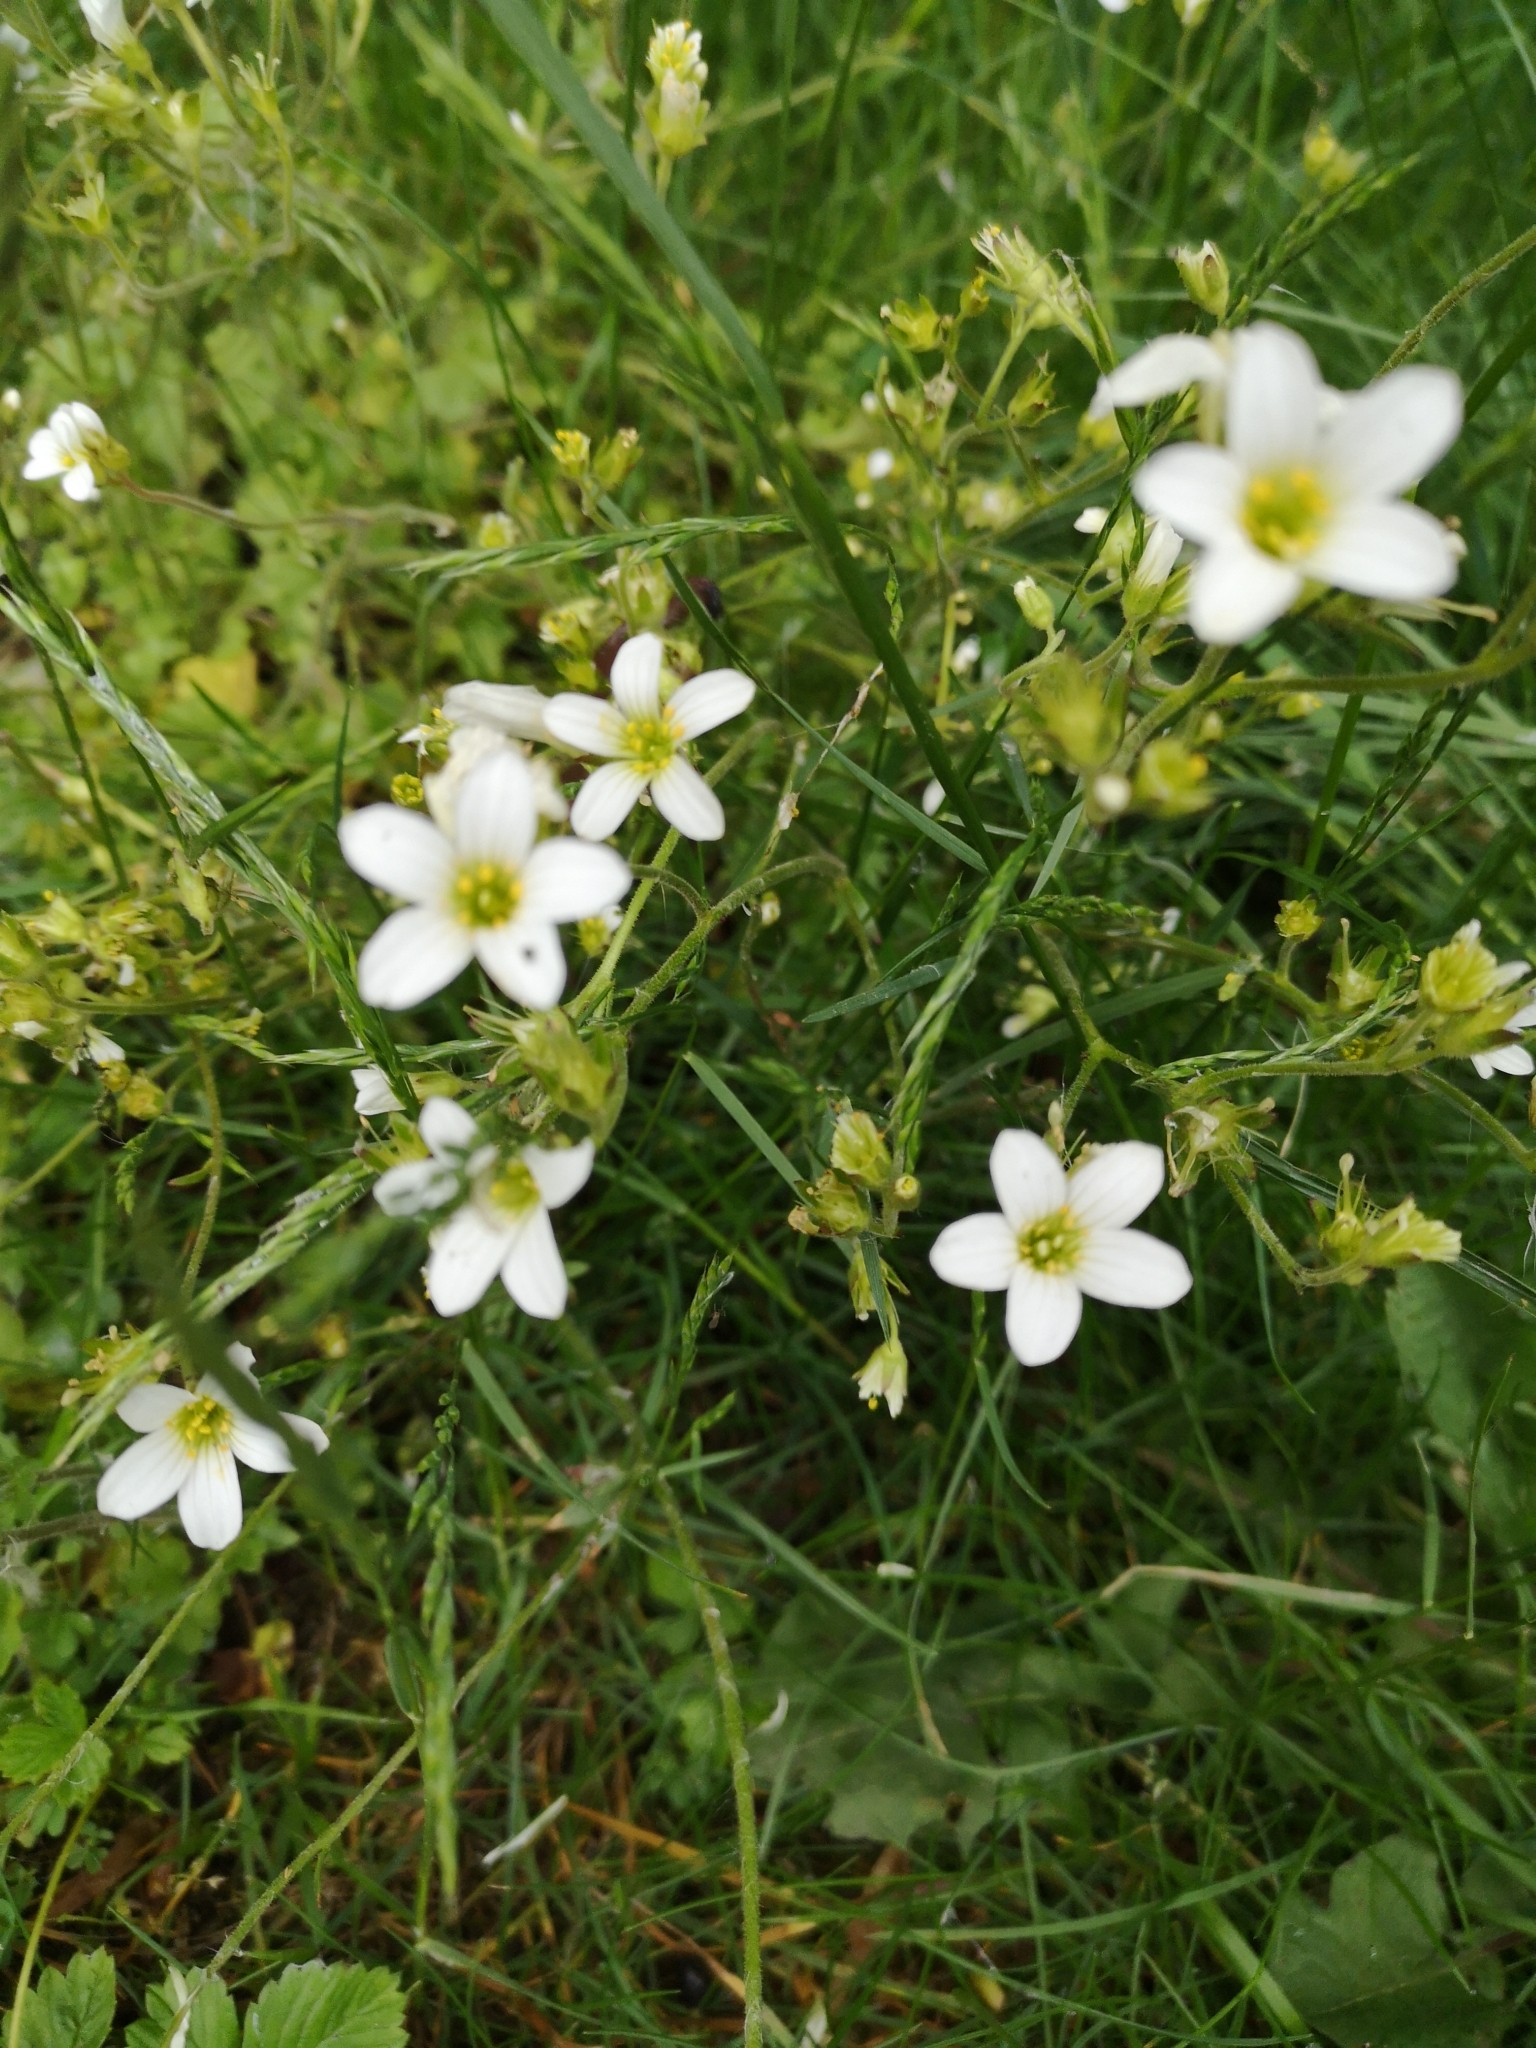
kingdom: Plantae
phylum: Tracheophyta
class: Magnoliopsida
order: Saxifragales
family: Saxifragaceae
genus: Saxifraga
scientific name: Saxifraga granulata
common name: Meadow saxifrage
